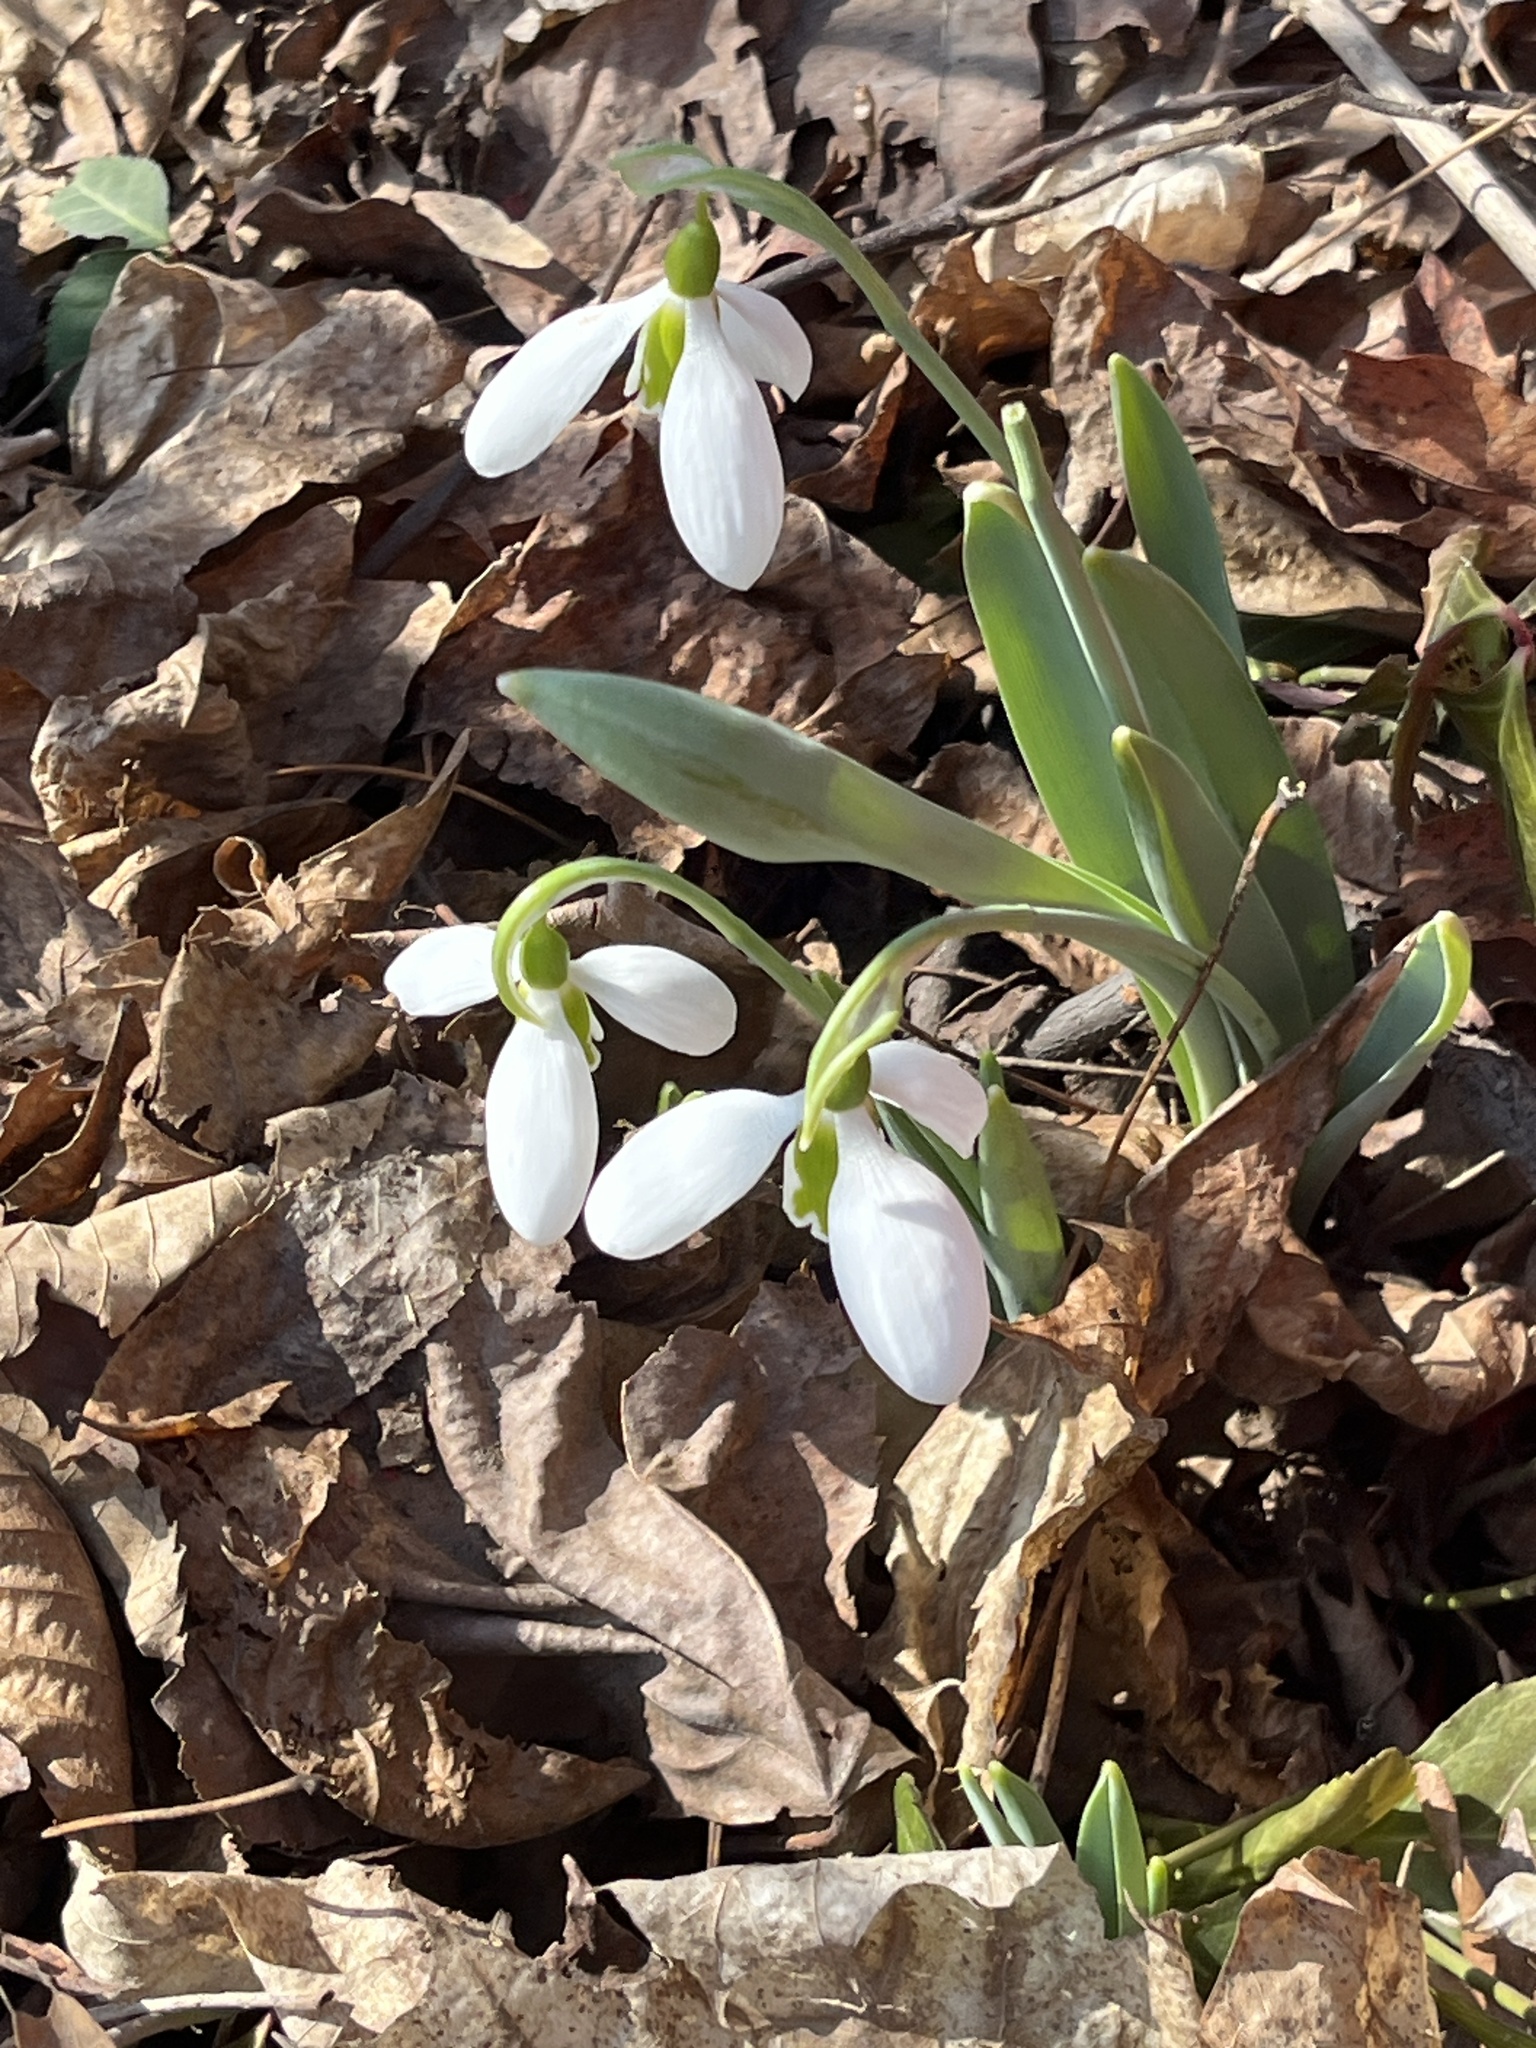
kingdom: Plantae
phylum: Tracheophyta
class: Liliopsida
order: Asparagales
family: Amaryllidaceae
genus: Galanthus
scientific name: Galanthus elwesii
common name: Greater snowdrop
